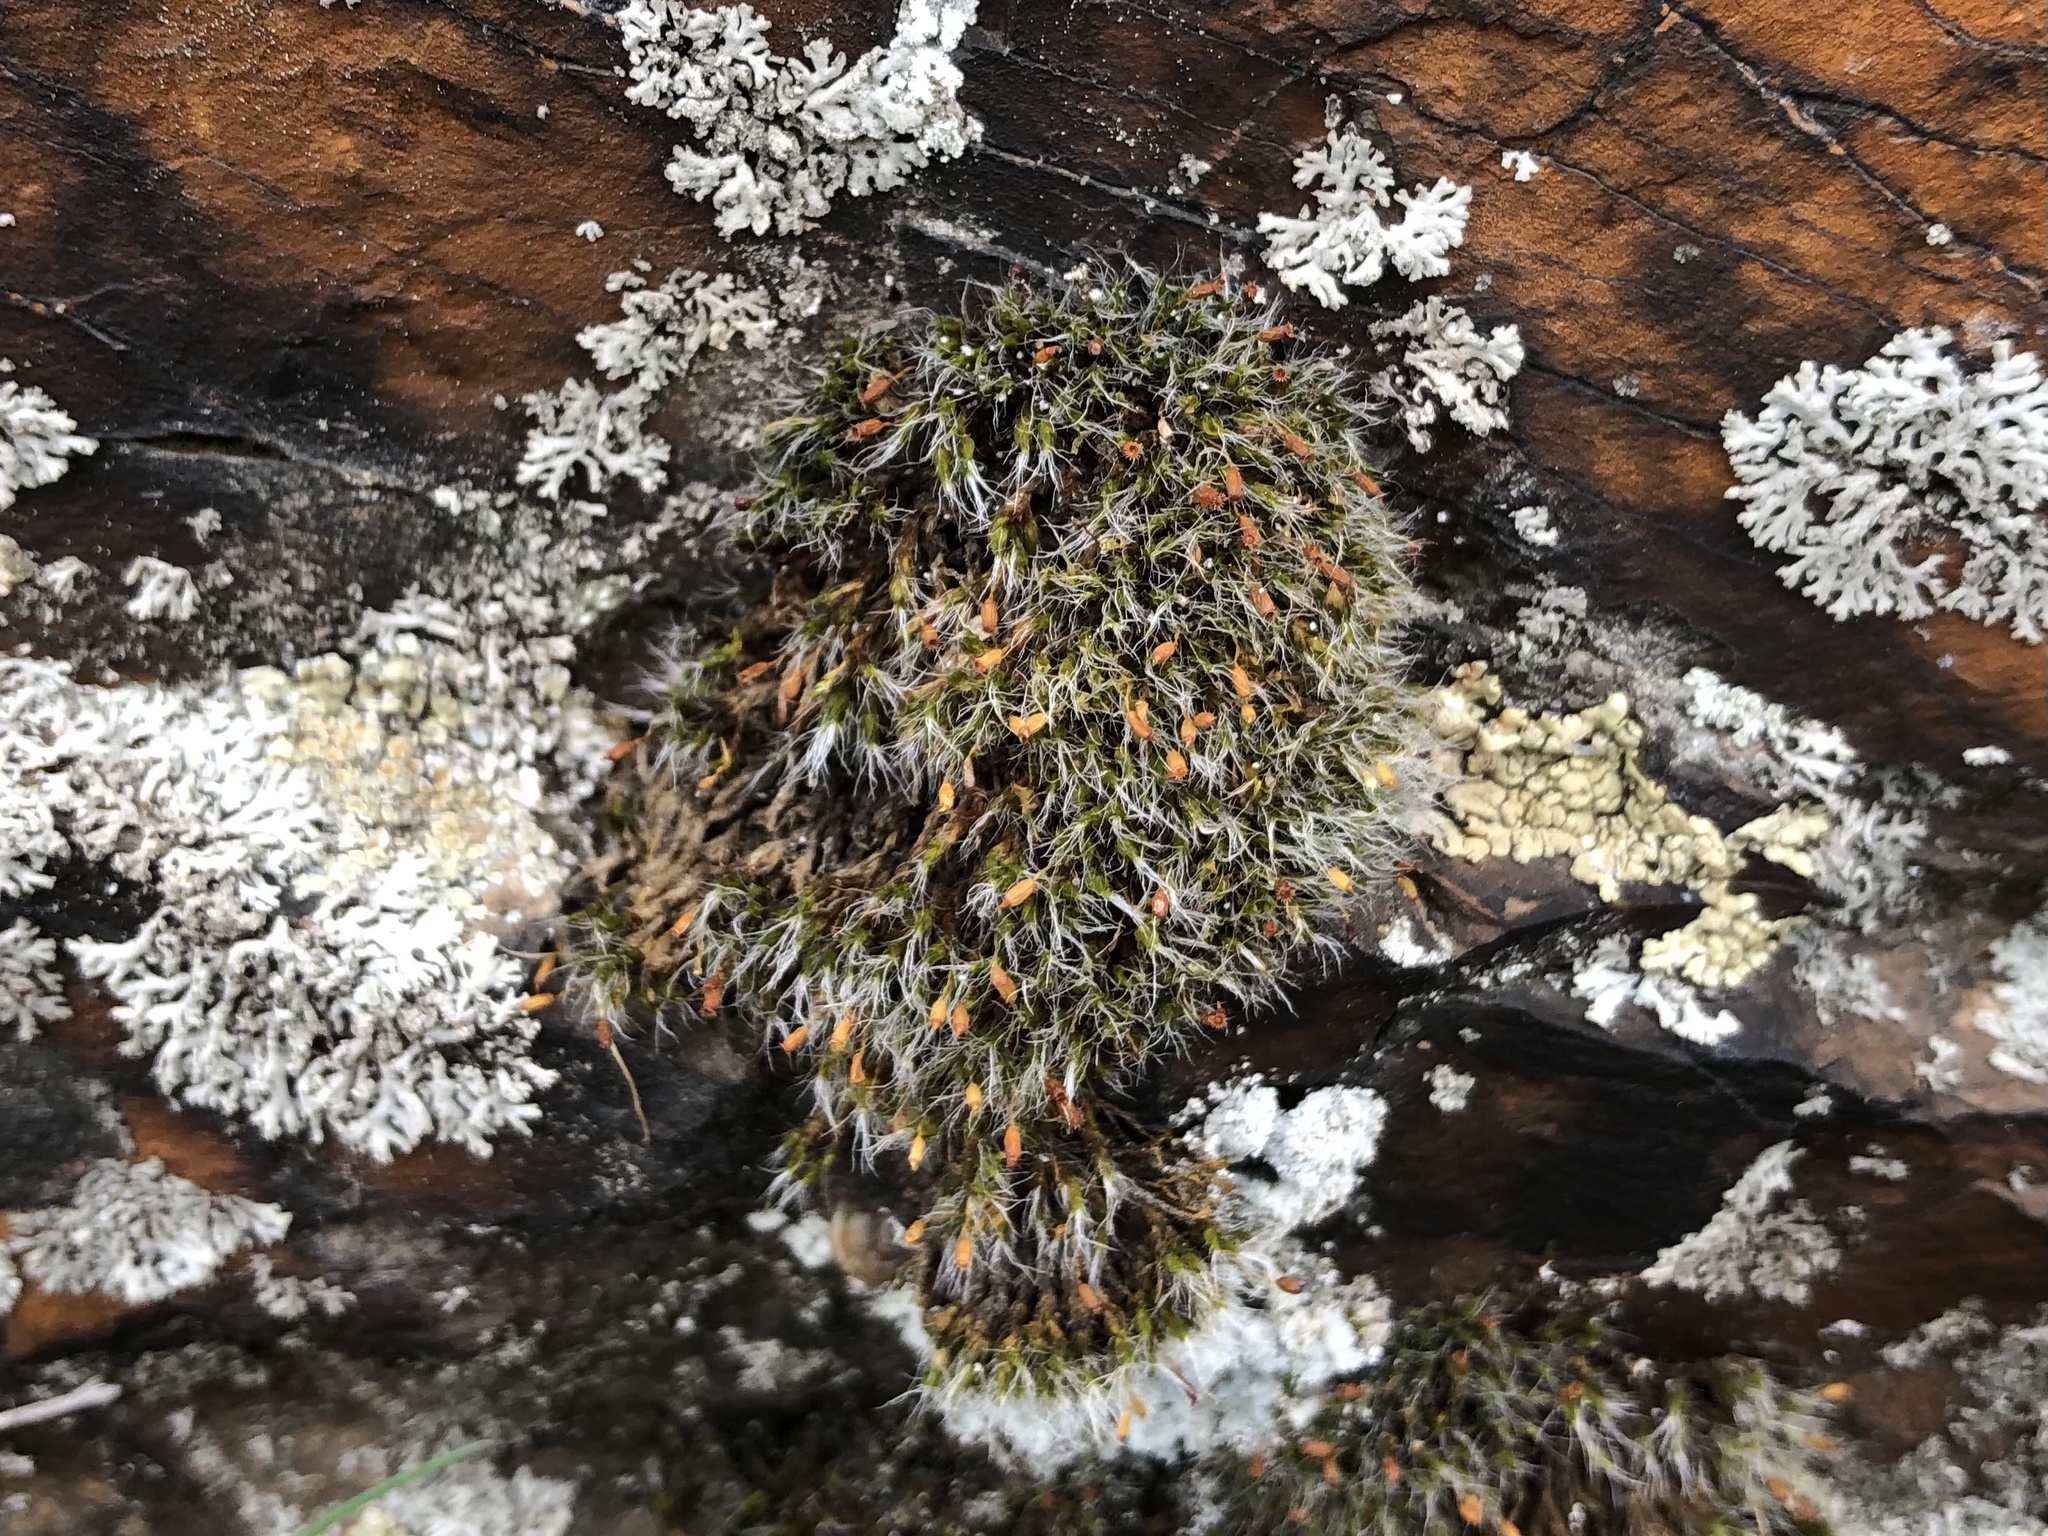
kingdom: Plantae
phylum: Bryophyta
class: Bryopsida
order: Grimmiales
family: Grimmiaceae
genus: Grimmia
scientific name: Grimmia pulvinata
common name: Grey-cushioned grimmia
